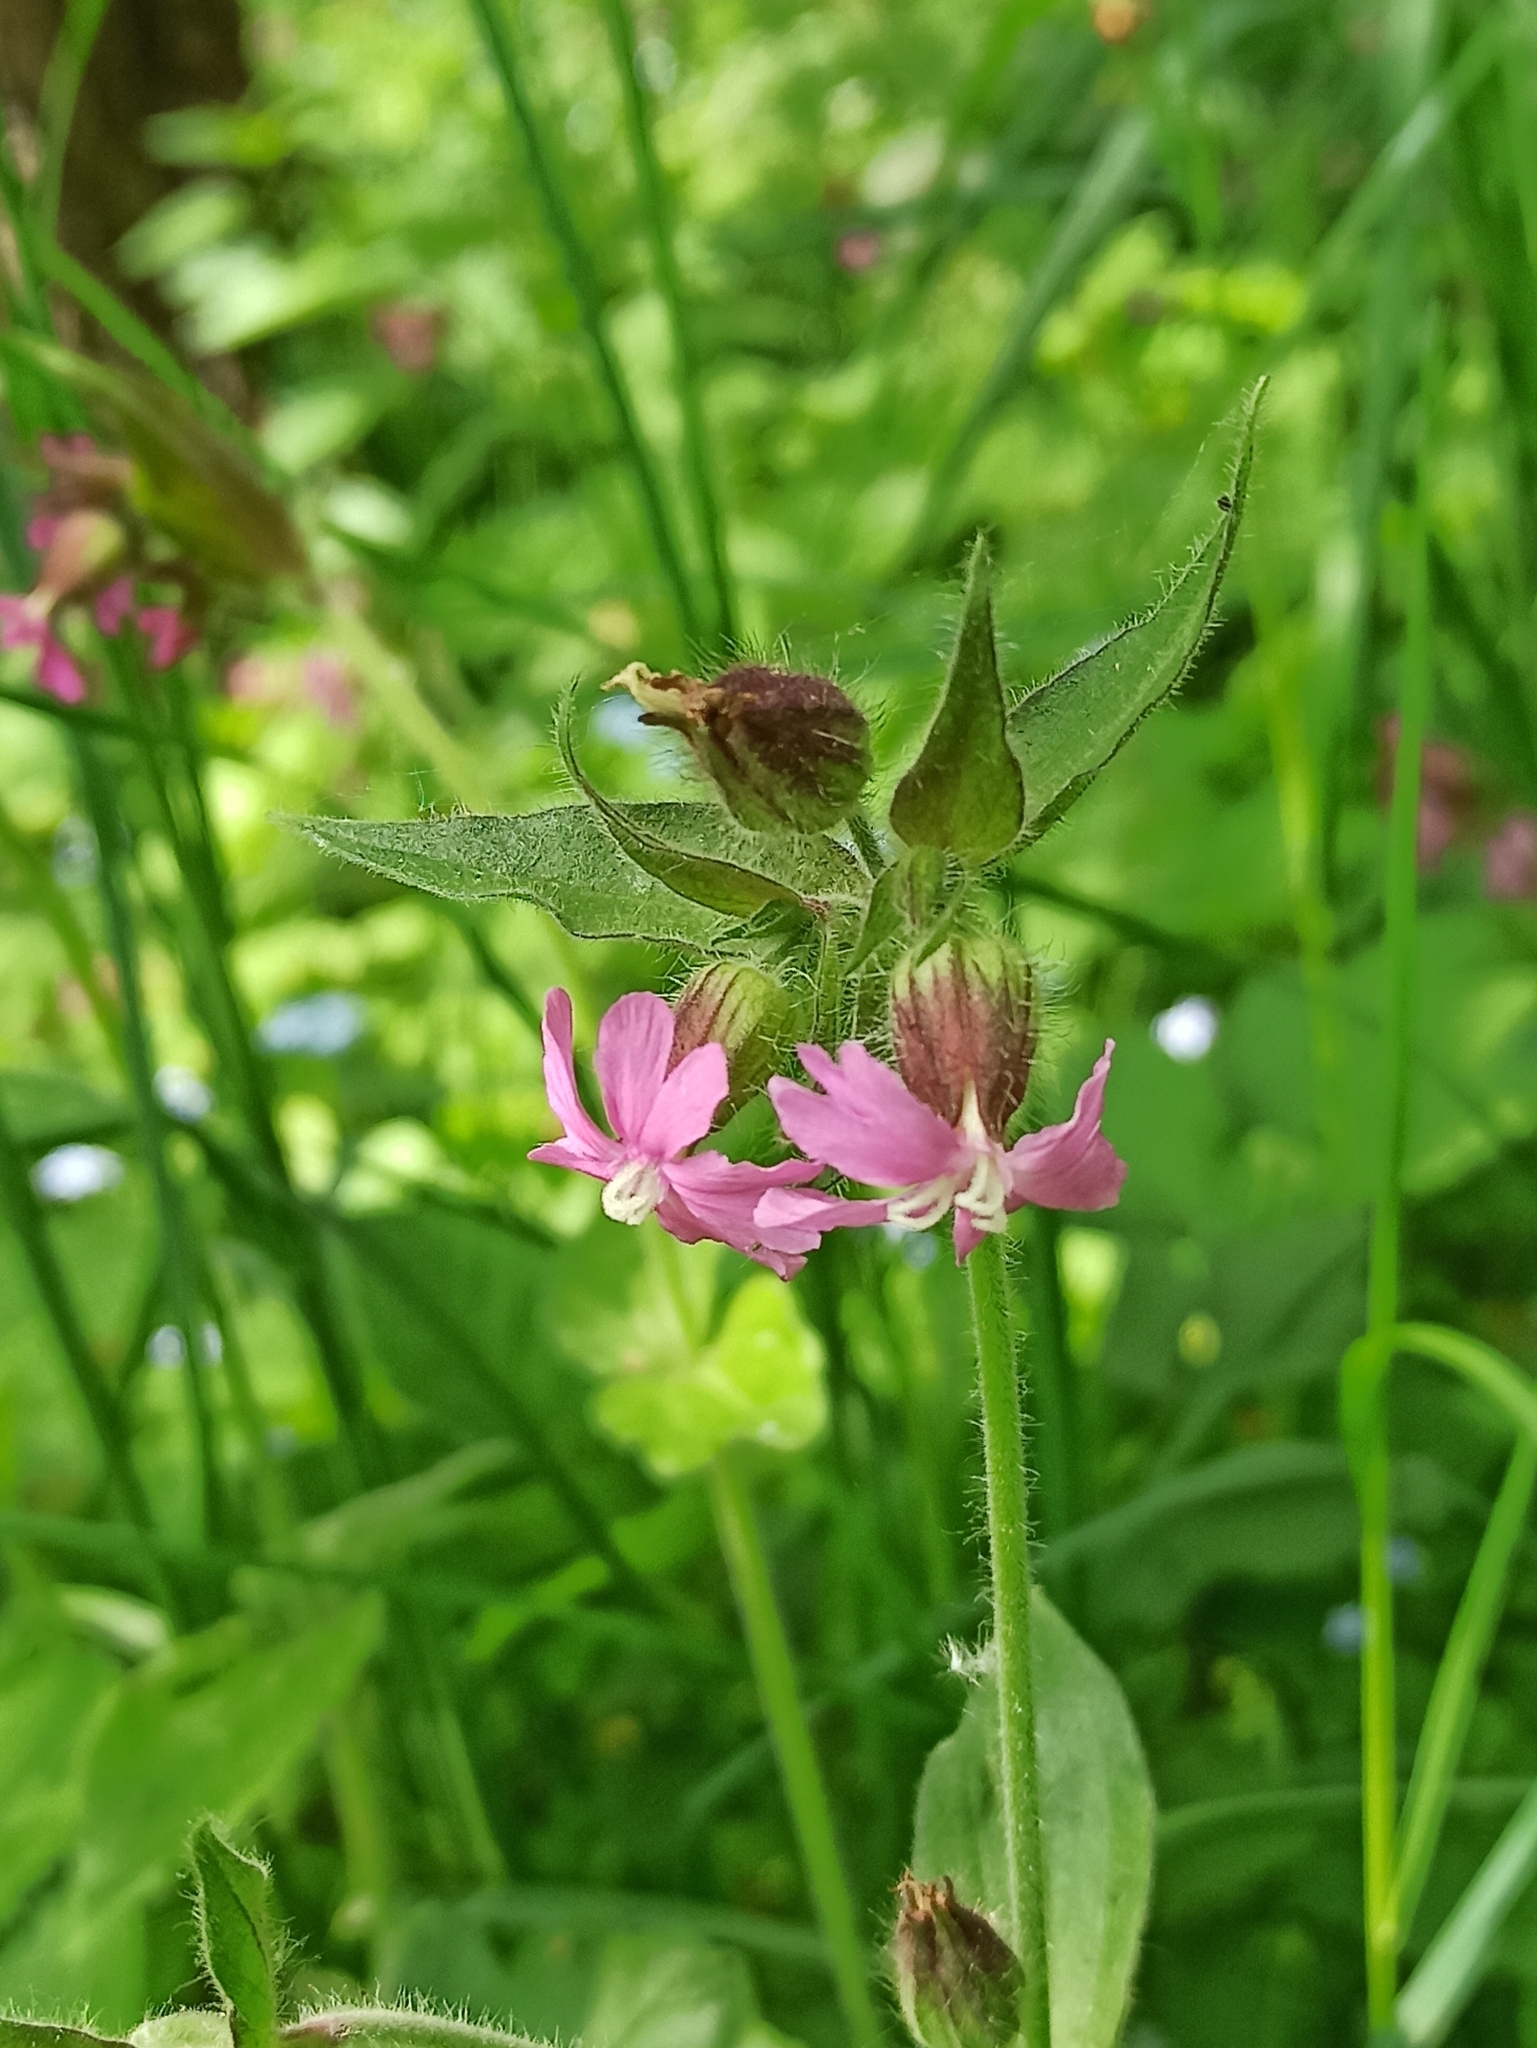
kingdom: Plantae
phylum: Tracheophyta
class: Magnoliopsida
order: Caryophyllales
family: Caryophyllaceae
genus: Silene
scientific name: Silene dioica
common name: Red campion
